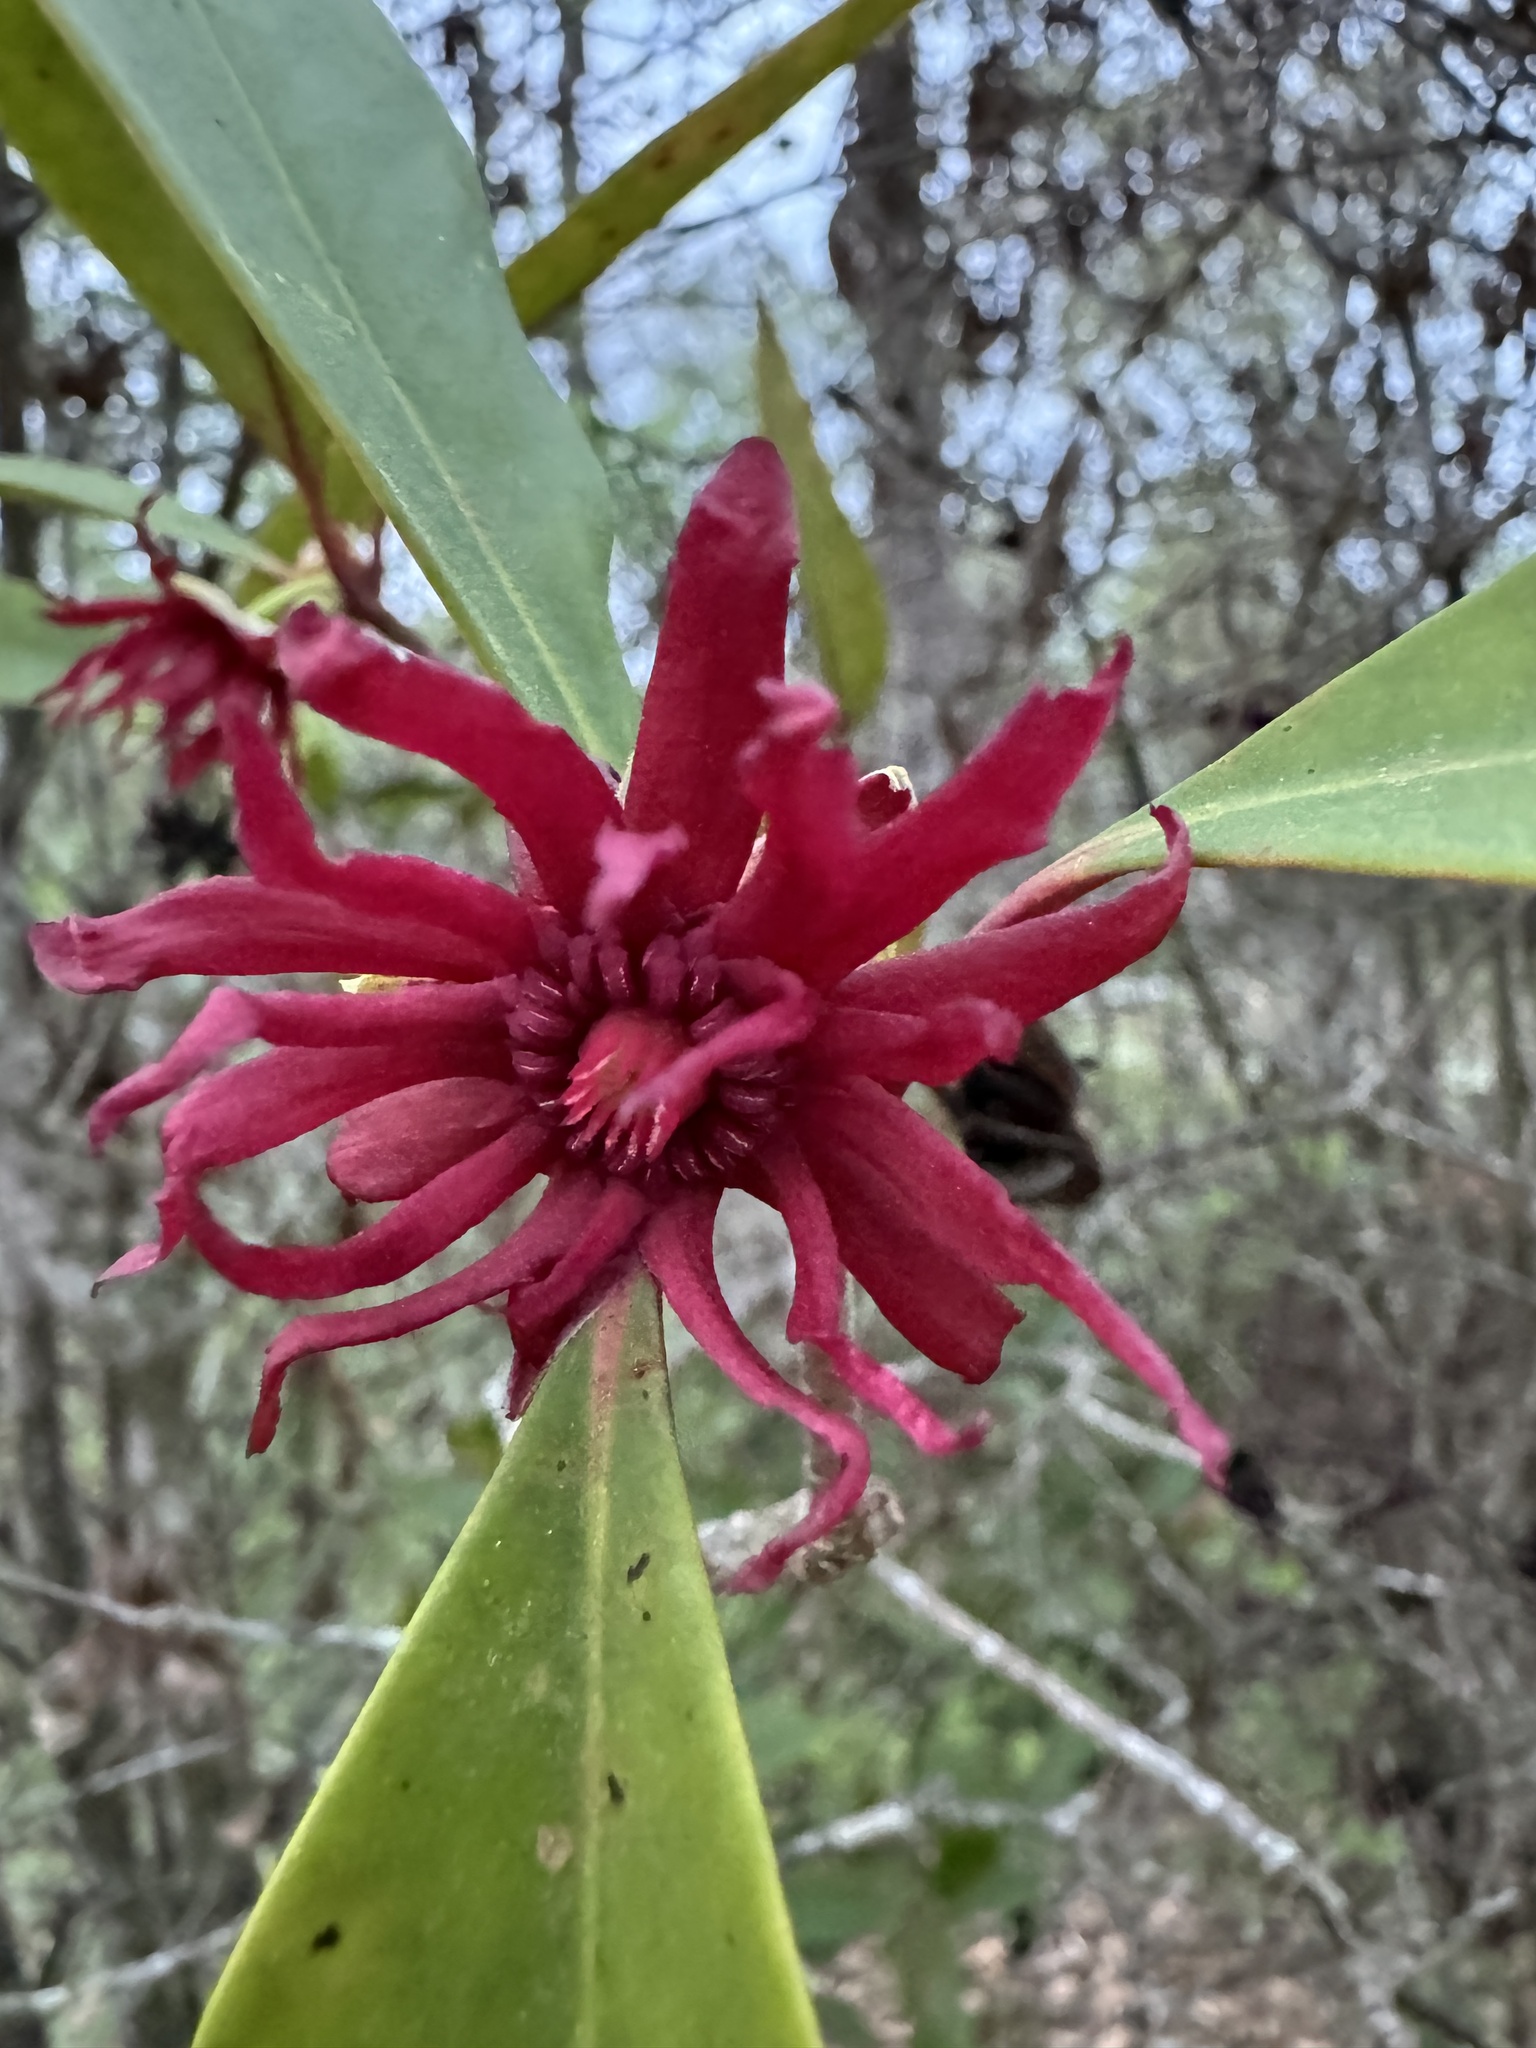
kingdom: Plantae
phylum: Tracheophyta
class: Magnoliopsida
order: Austrobaileyales
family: Schisandraceae
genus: Illicium
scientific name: Illicium floridanum
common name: Florida anisetree
